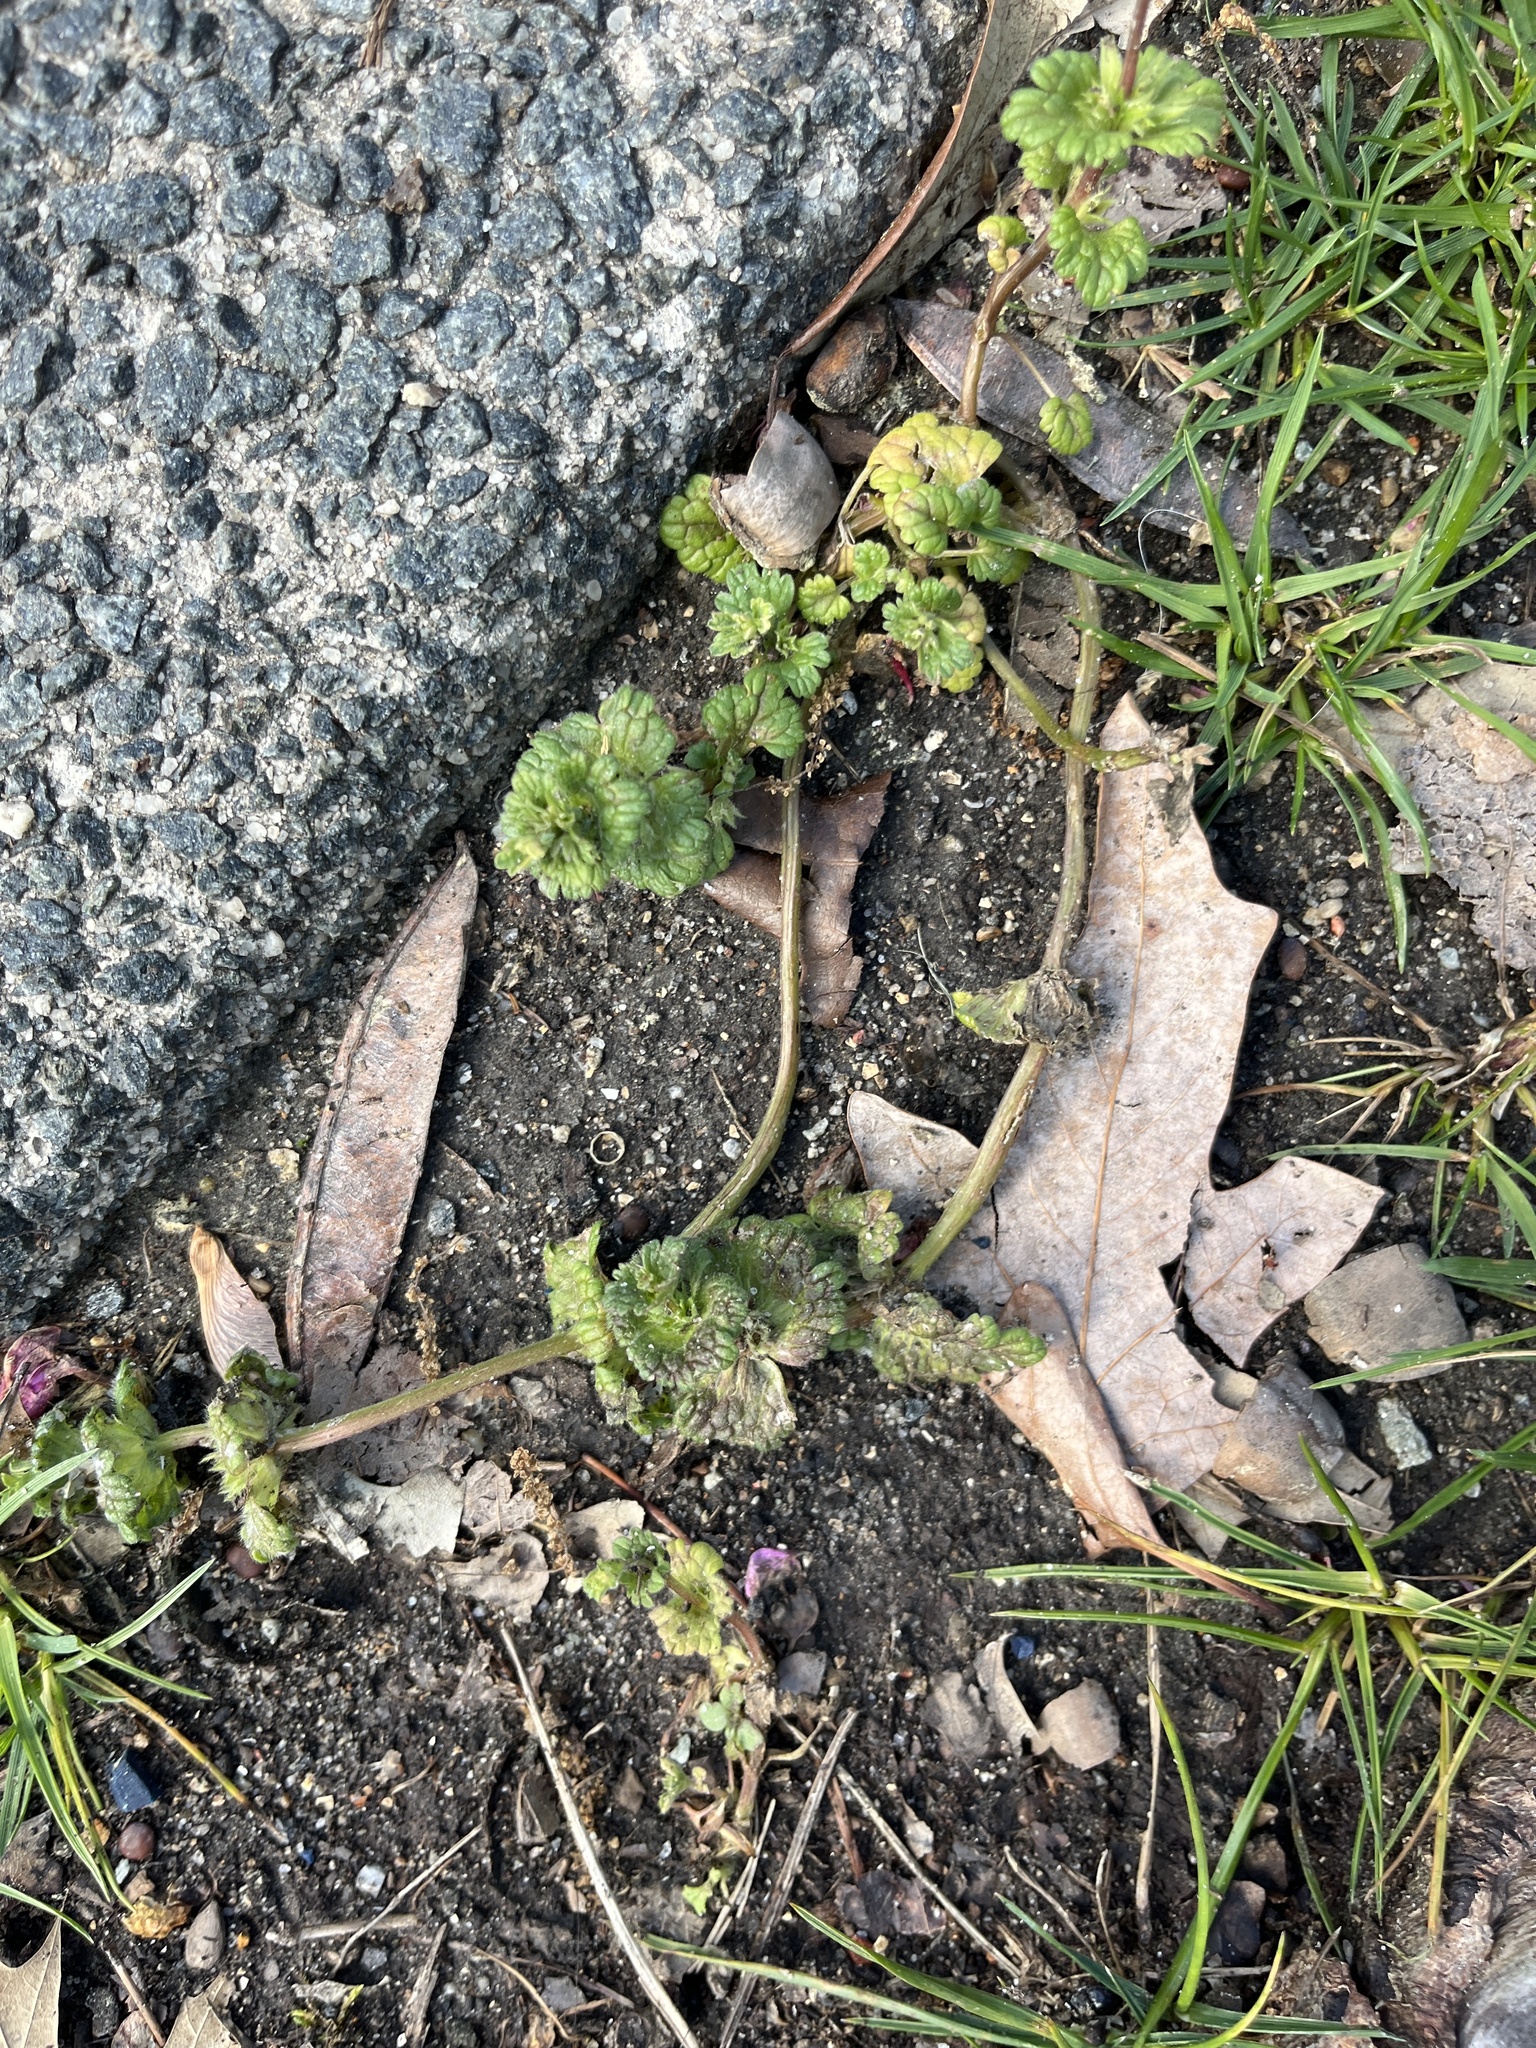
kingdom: Plantae
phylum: Tracheophyta
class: Magnoliopsida
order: Lamiales
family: Lamiaceae
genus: Lamium
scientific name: Lamium amplexicaule
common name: Henbit dead-nettle
